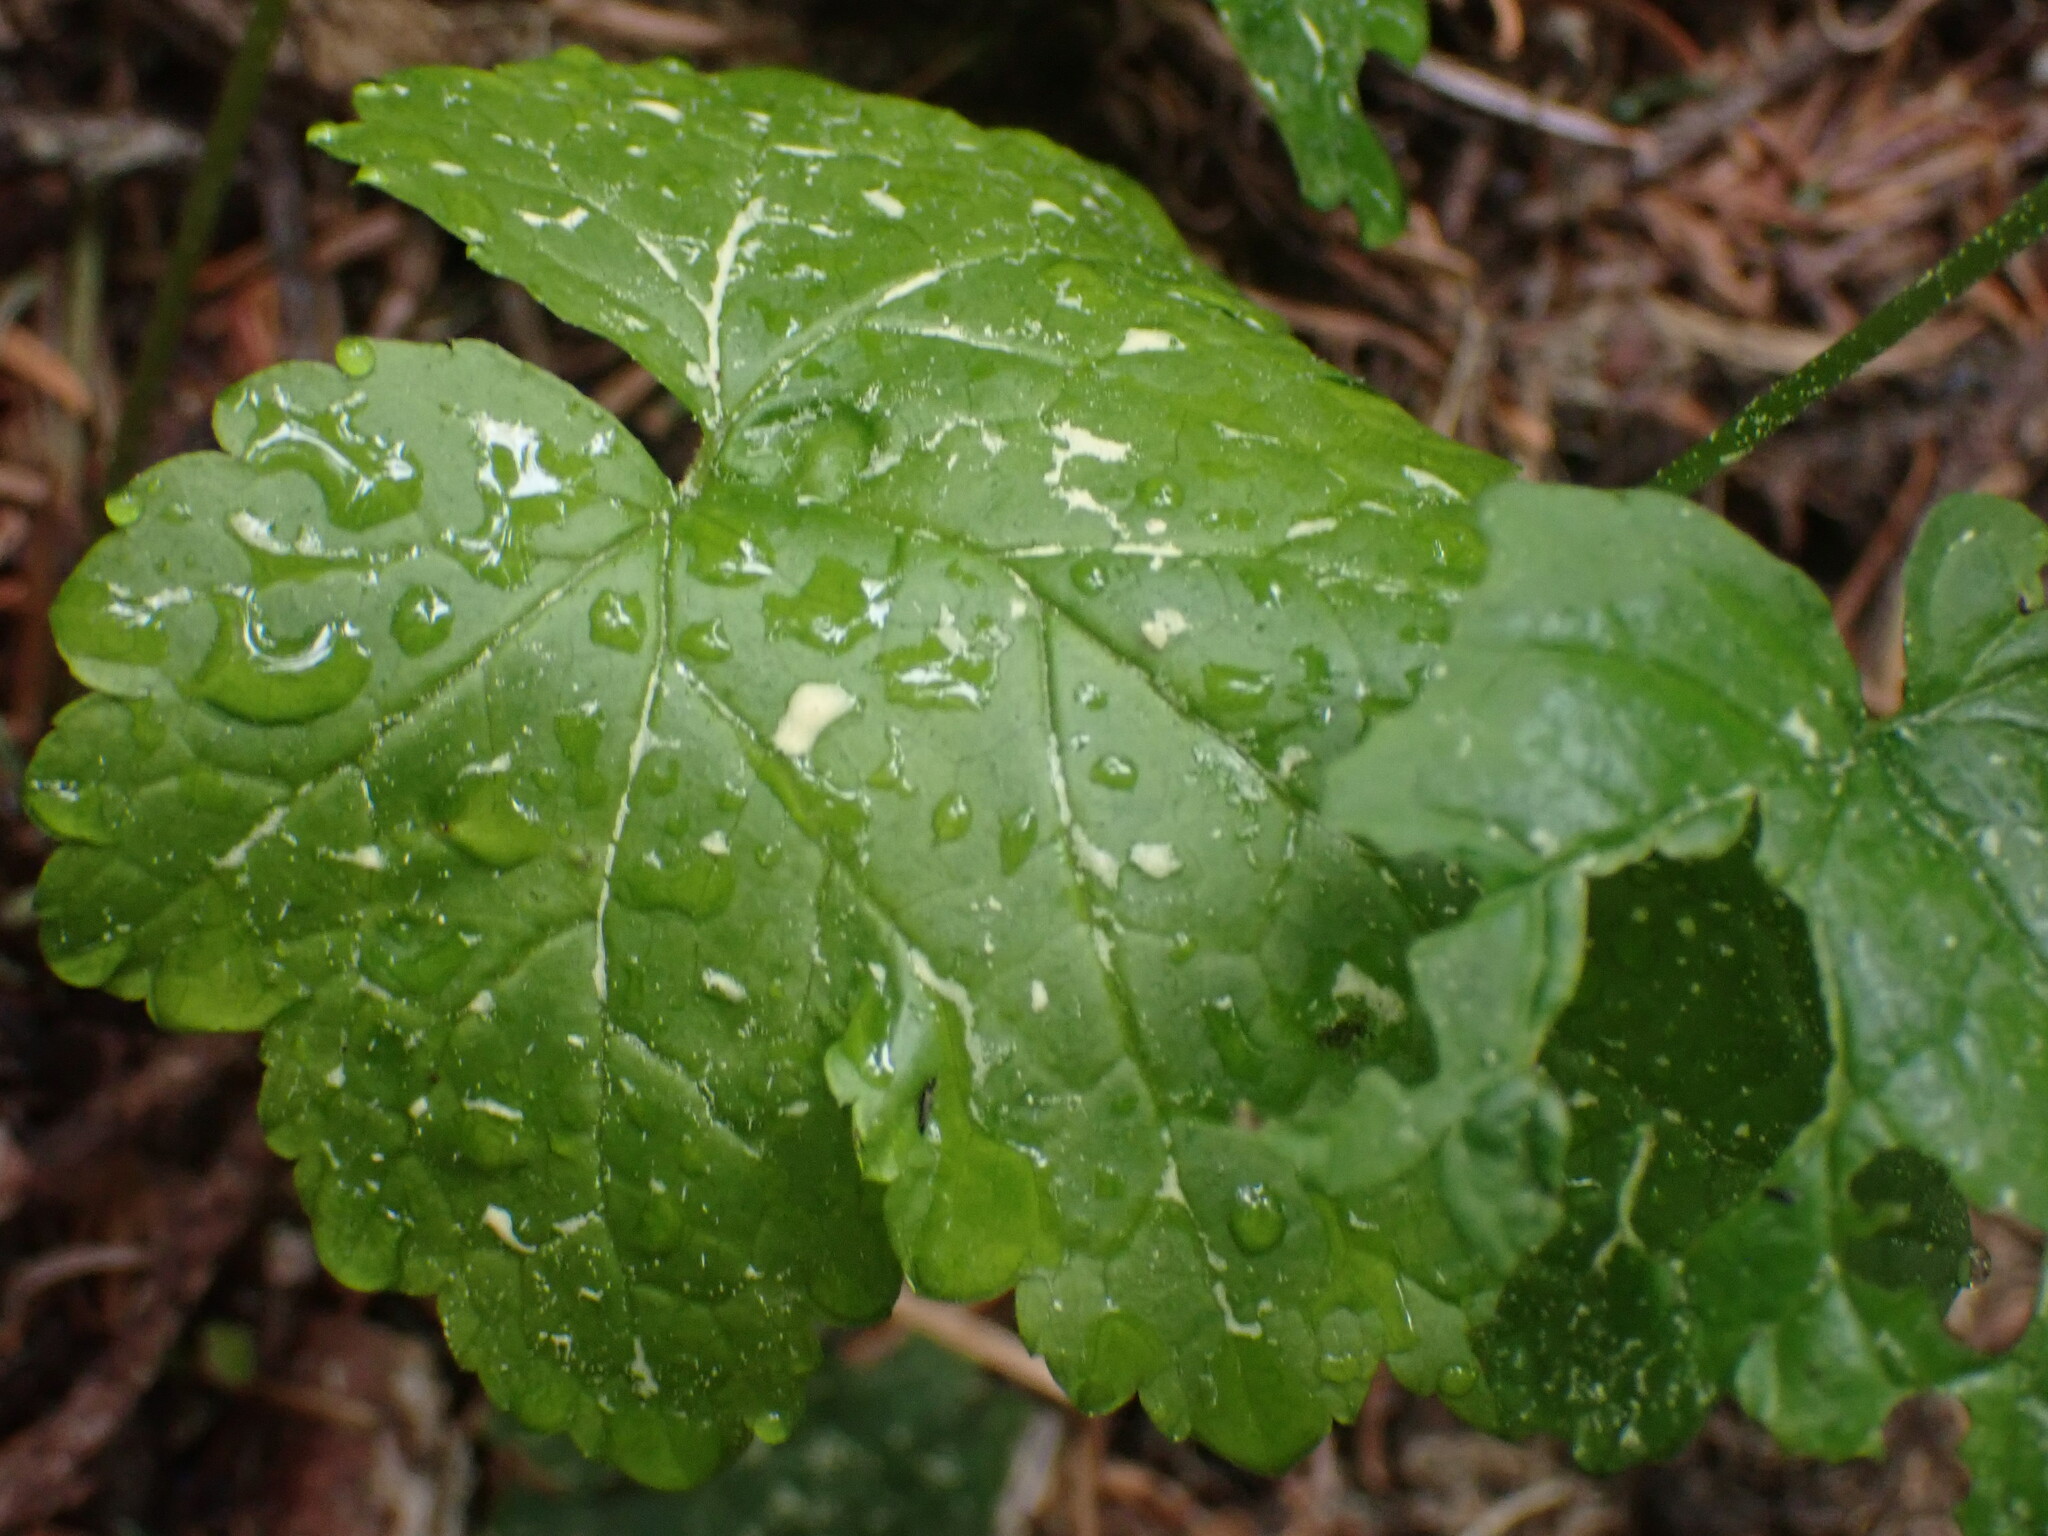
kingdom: Plantae
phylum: Tracheophyta
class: Magnoliopsida
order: Saxifragales
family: Saxifragaceae
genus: Tiarella
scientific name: Tiarella trifoliata
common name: Sugar-scoop
